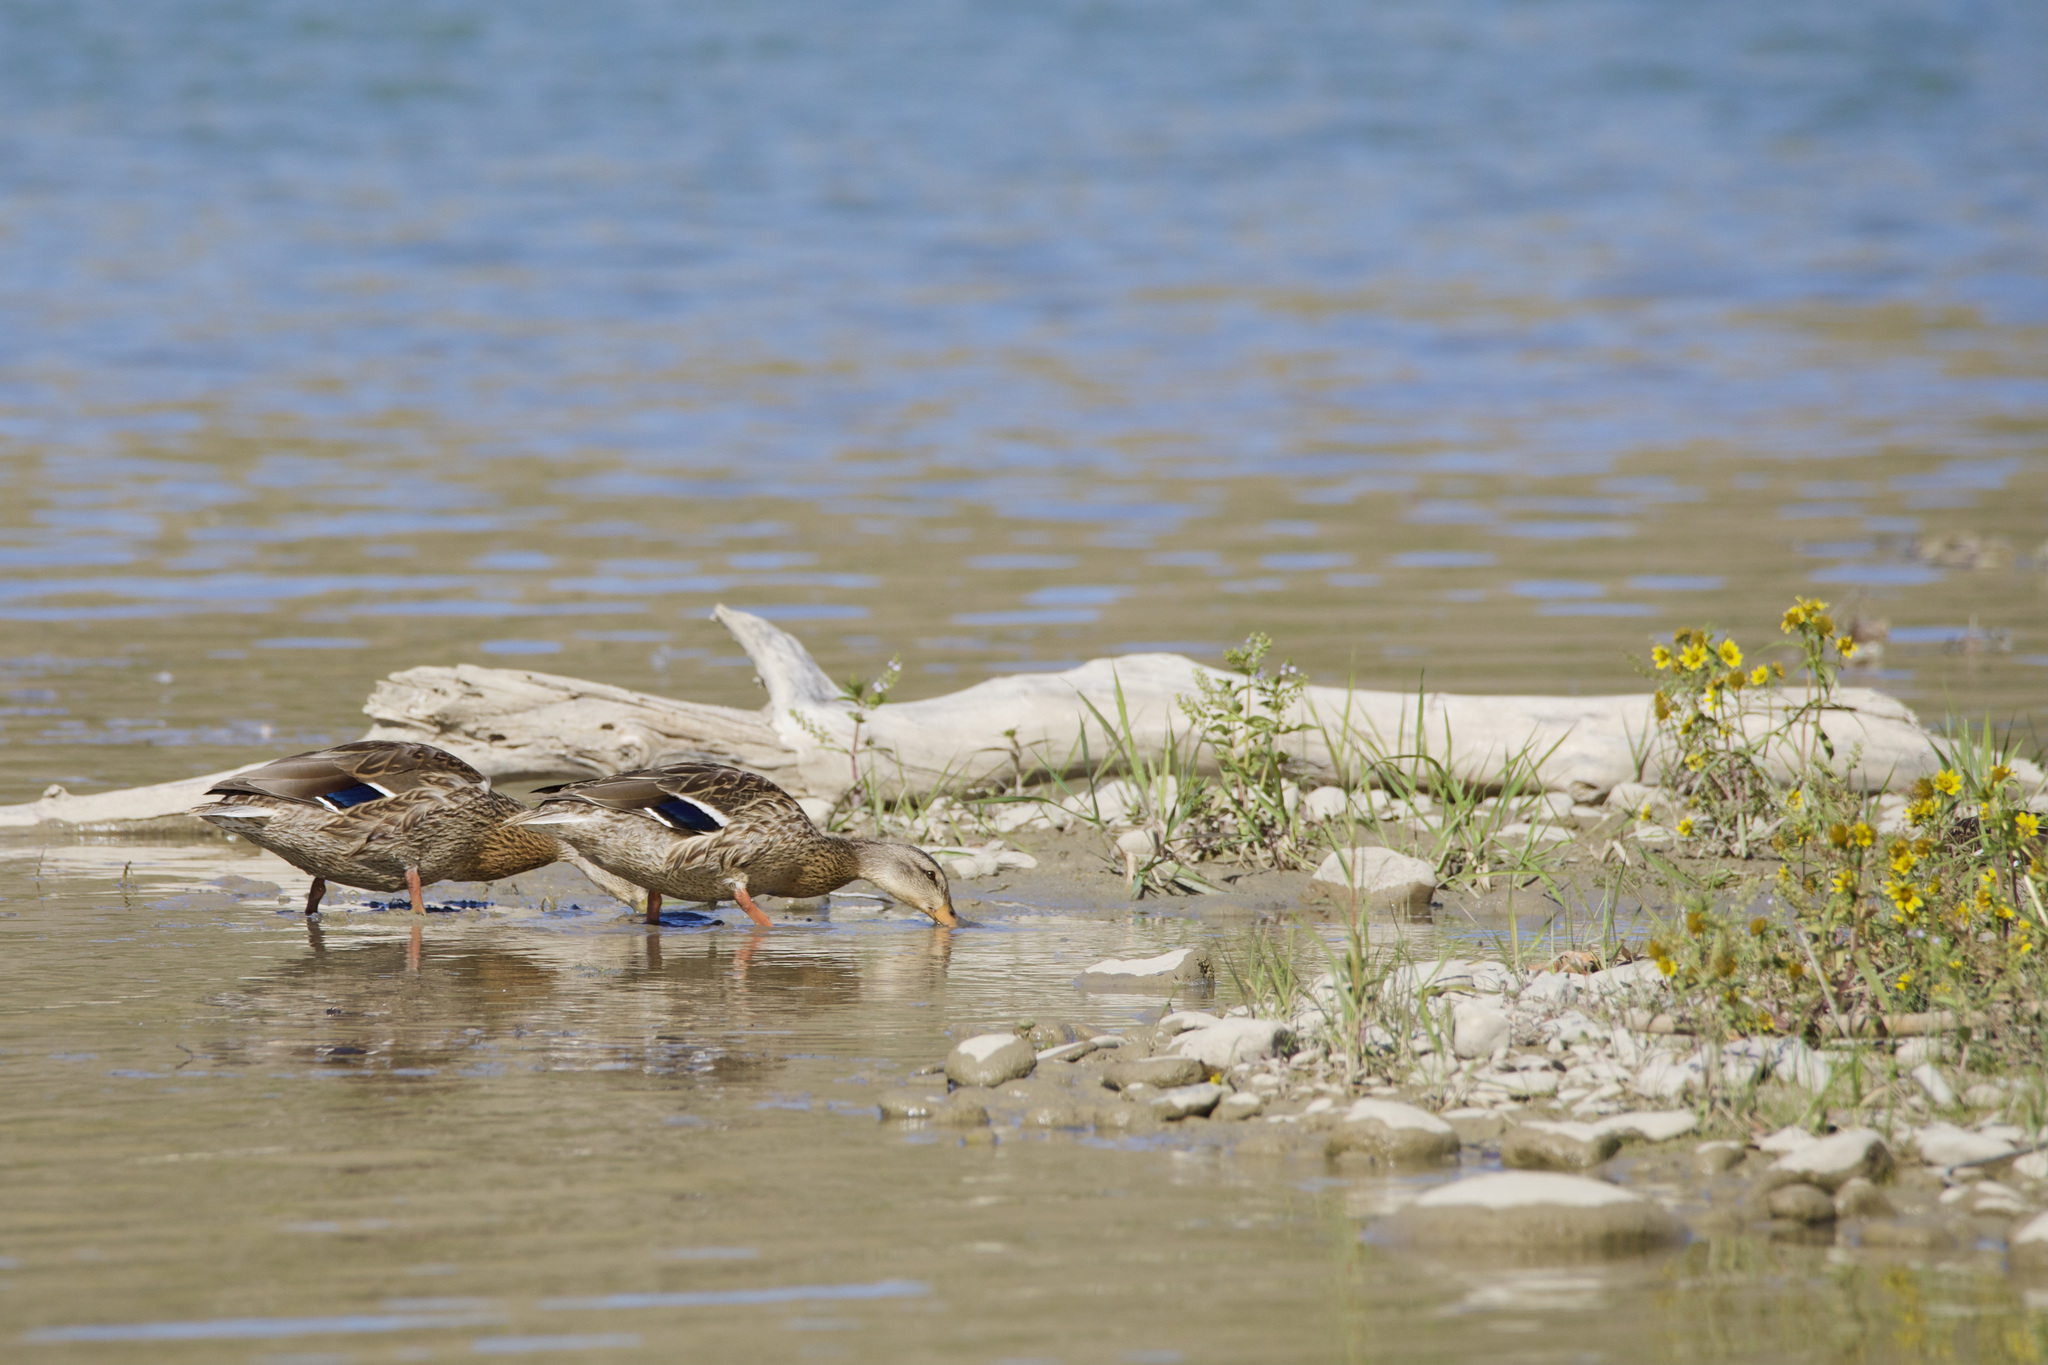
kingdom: Animalia
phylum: Chordata
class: Aves
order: Anseriformes
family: Anatidae
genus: Anas
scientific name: Anas platyrhynchos
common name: Mallard
